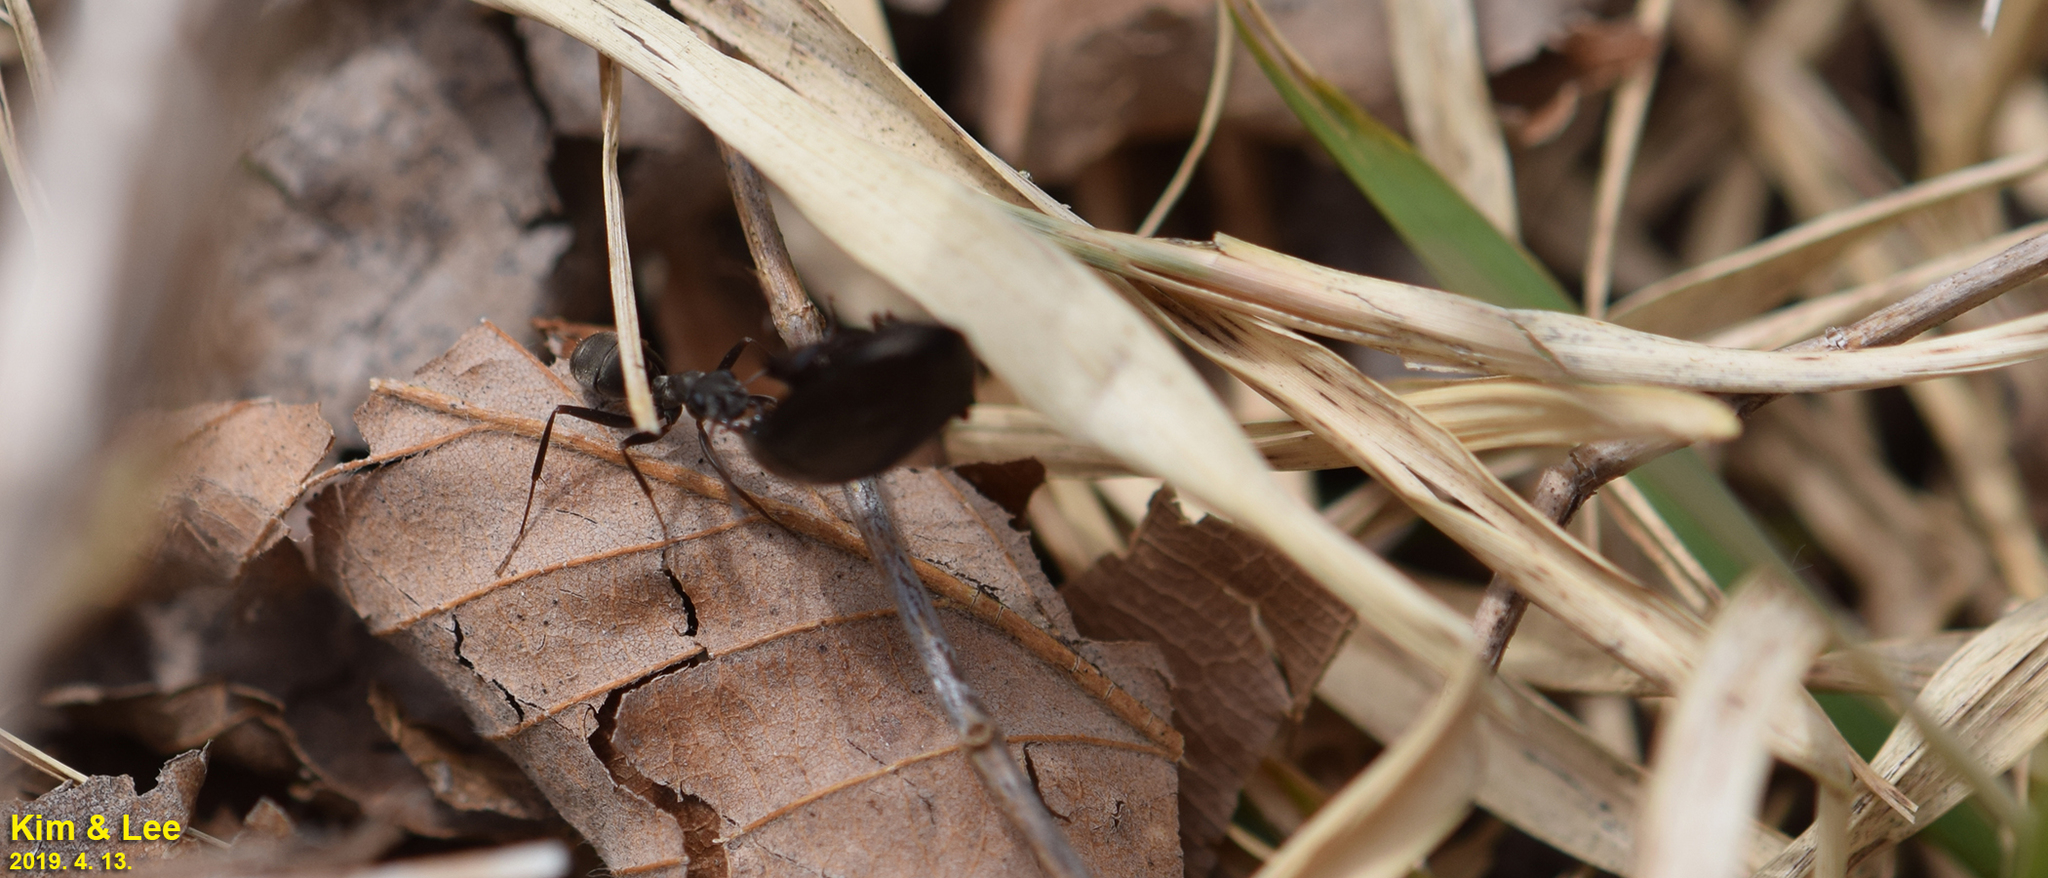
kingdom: Animalia
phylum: Arthropoda
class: Insecta
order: Hymenoptera
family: Formicidae
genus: Formica
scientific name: Formica japonica
